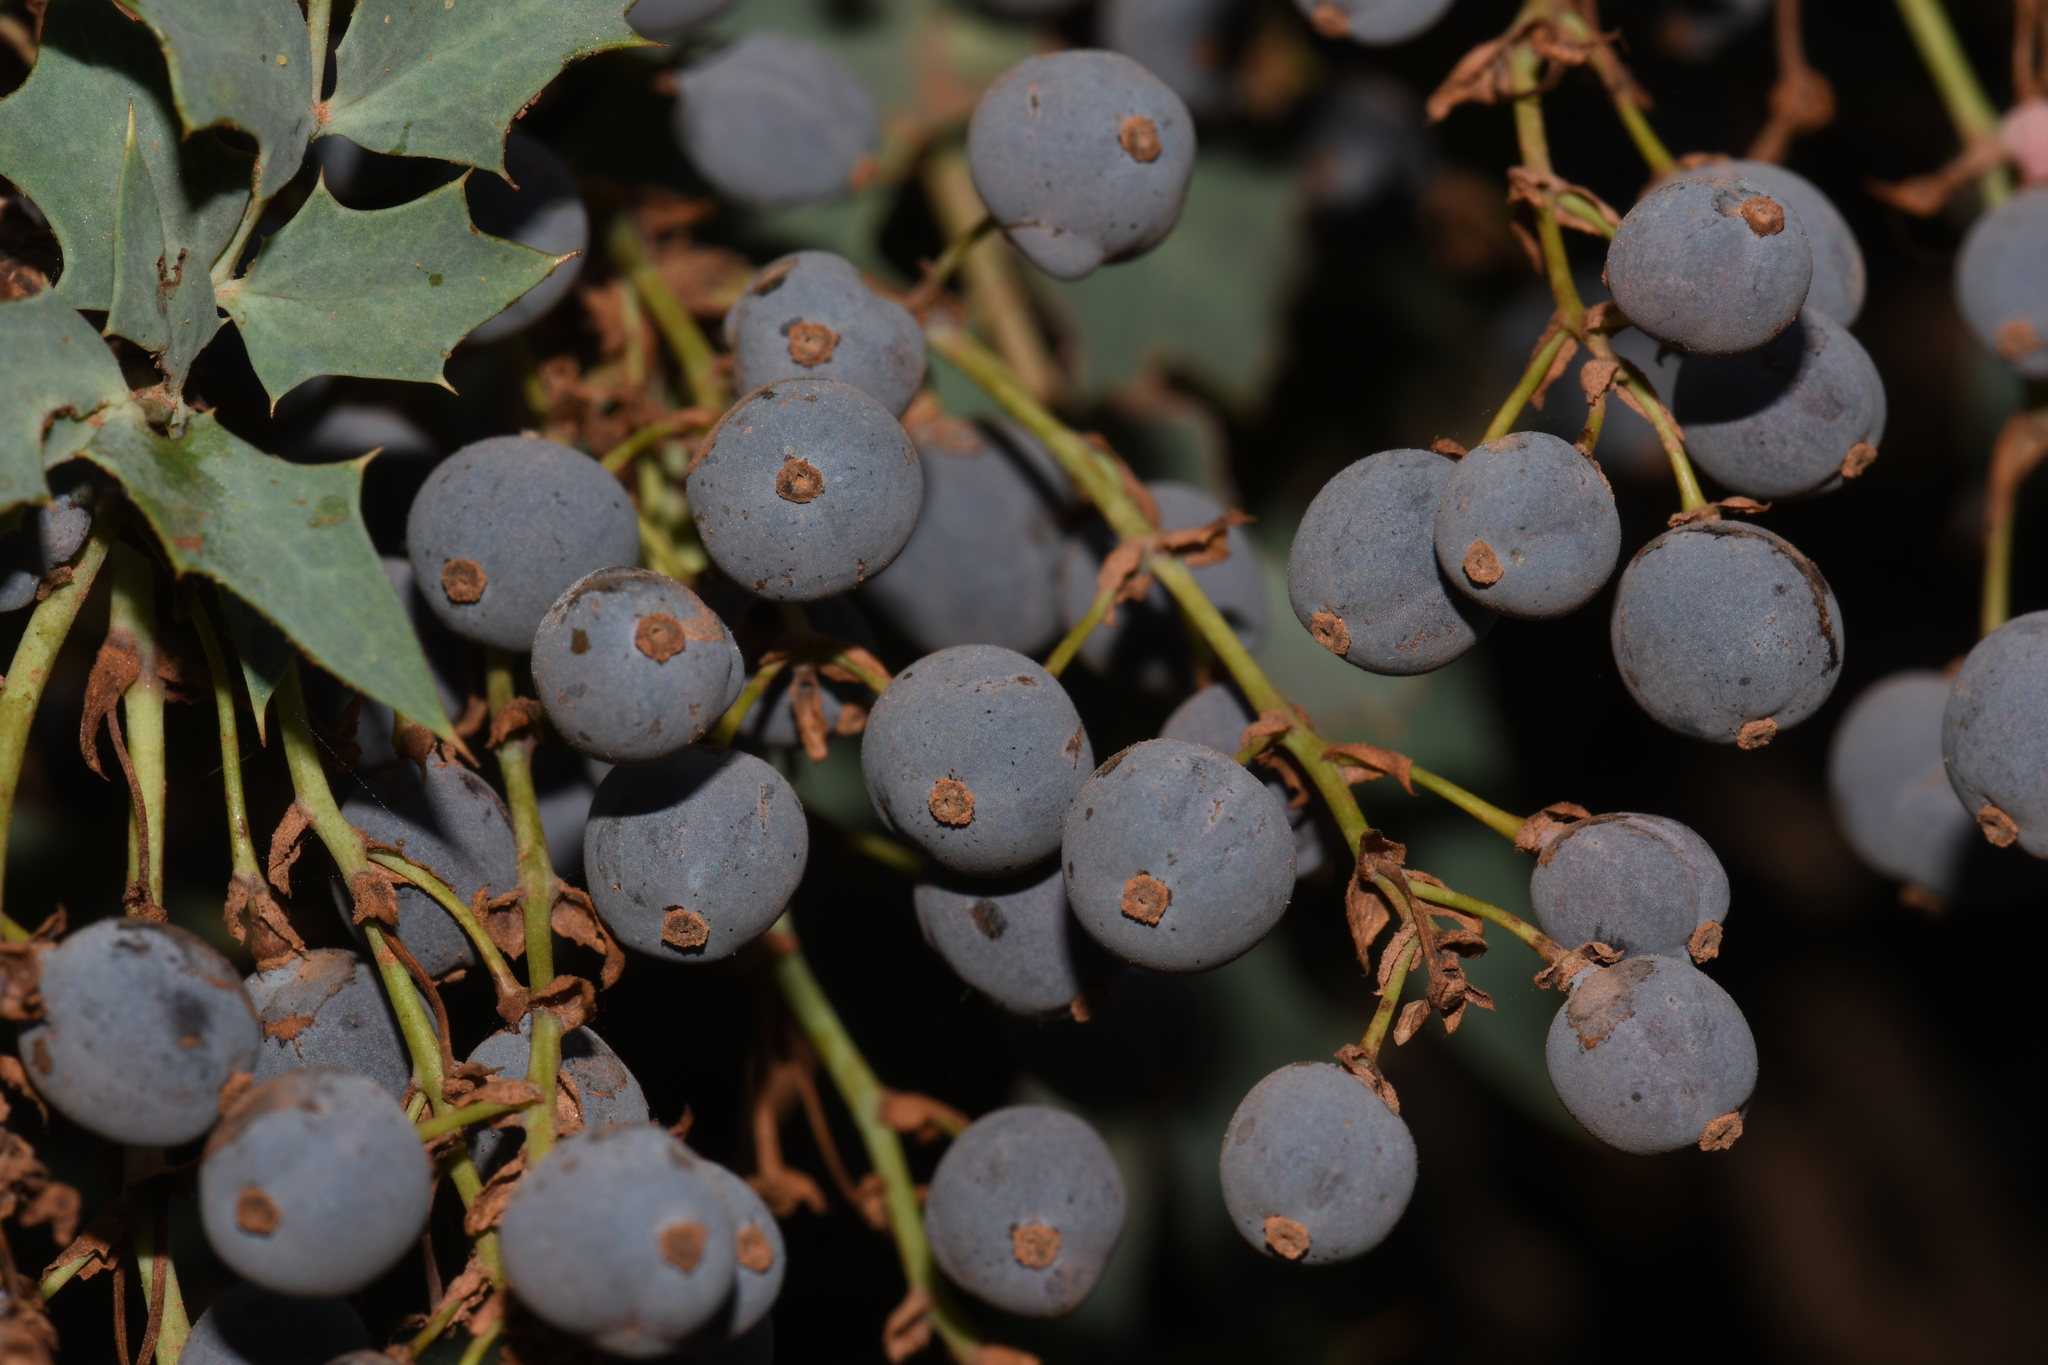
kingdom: Plantae
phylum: Tracheophyta
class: Magnoliopsida
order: Ranunculales
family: Berberidaceae
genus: Alloberberis
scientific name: Alloberberis fremontii
